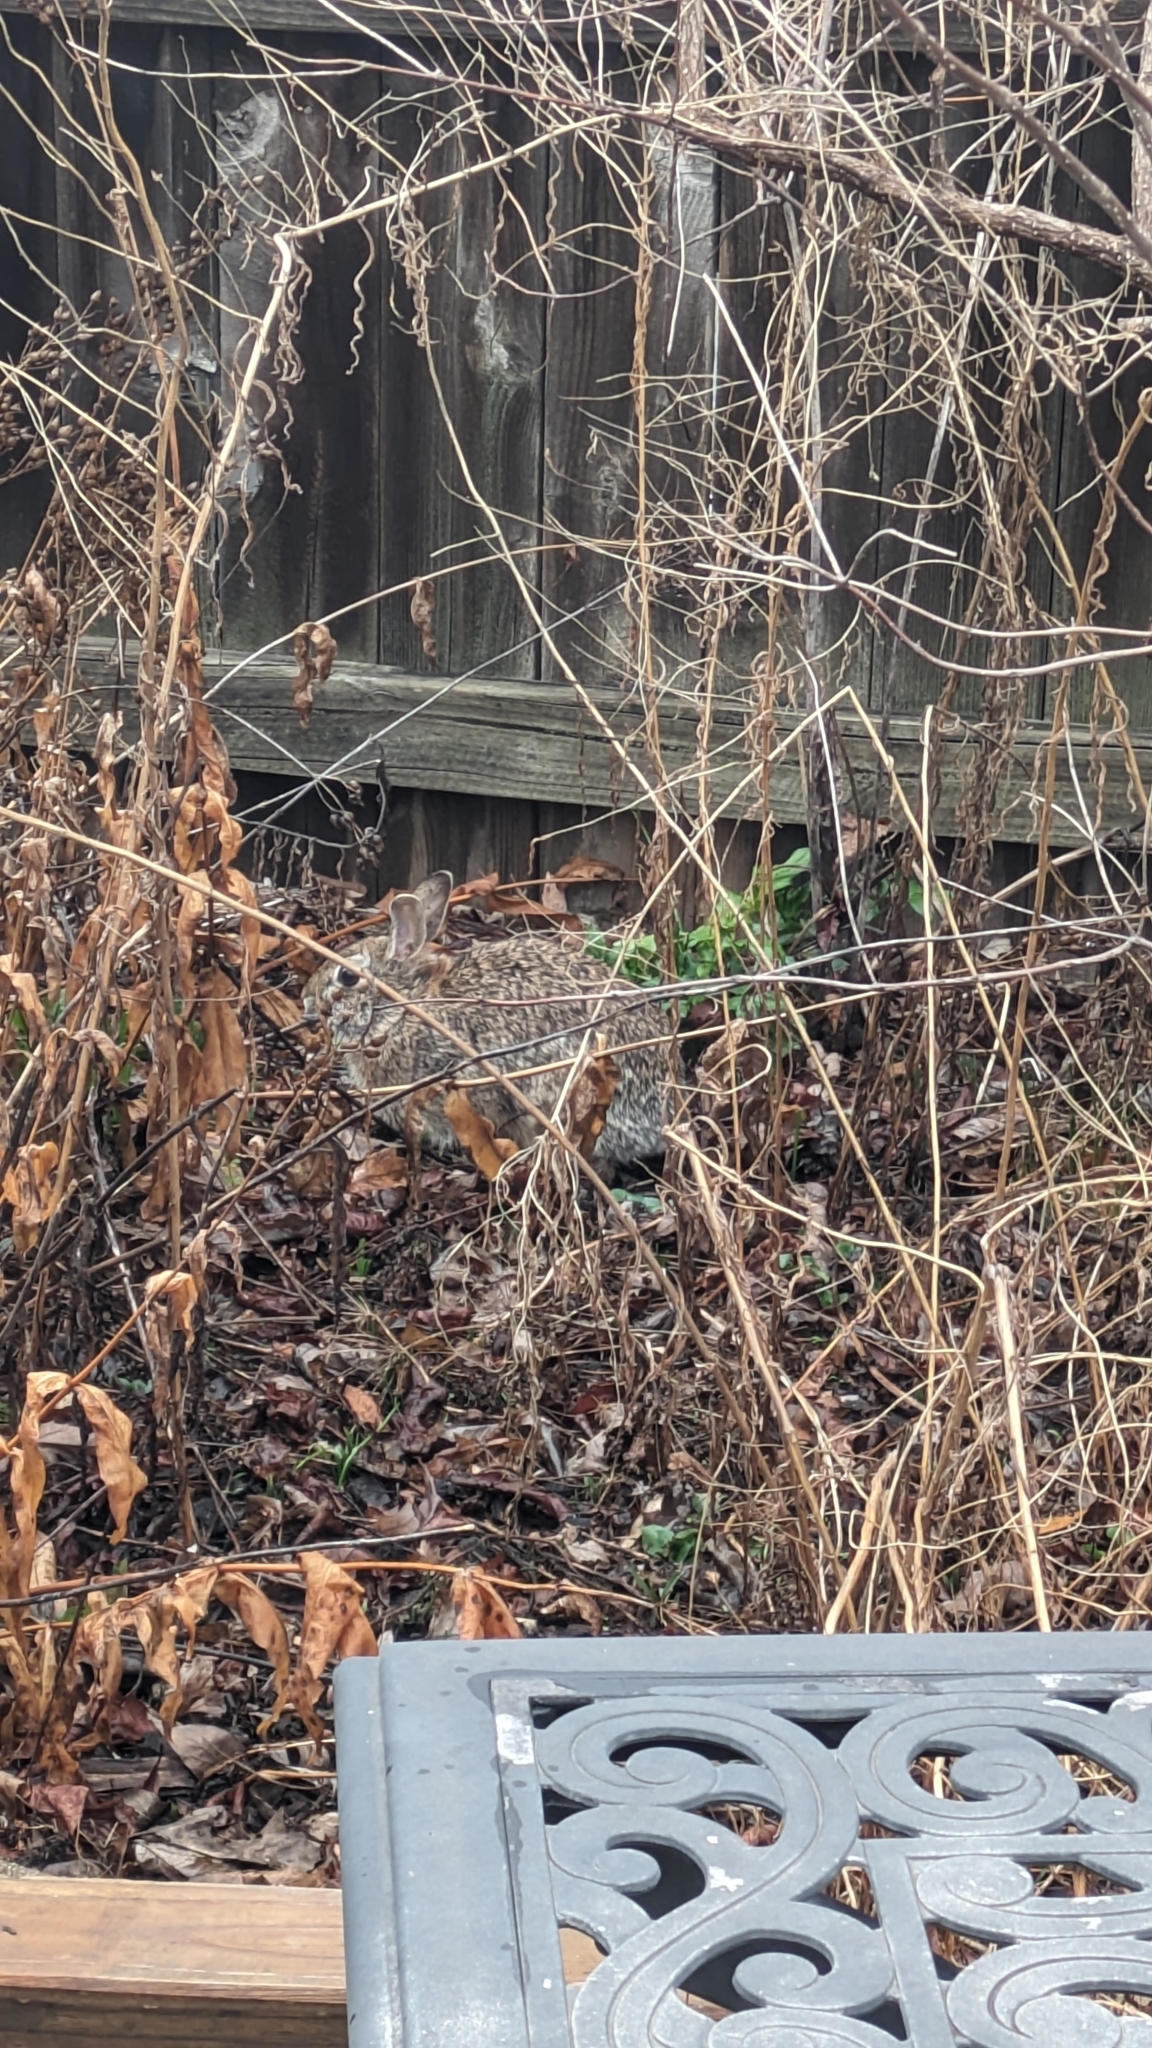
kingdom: Animalia
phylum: Chordata
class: Mammalia
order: Lagomorpha
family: Leporidae
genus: Sylvilagus
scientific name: Sylvilagus floridanus
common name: Eastern cottontail
